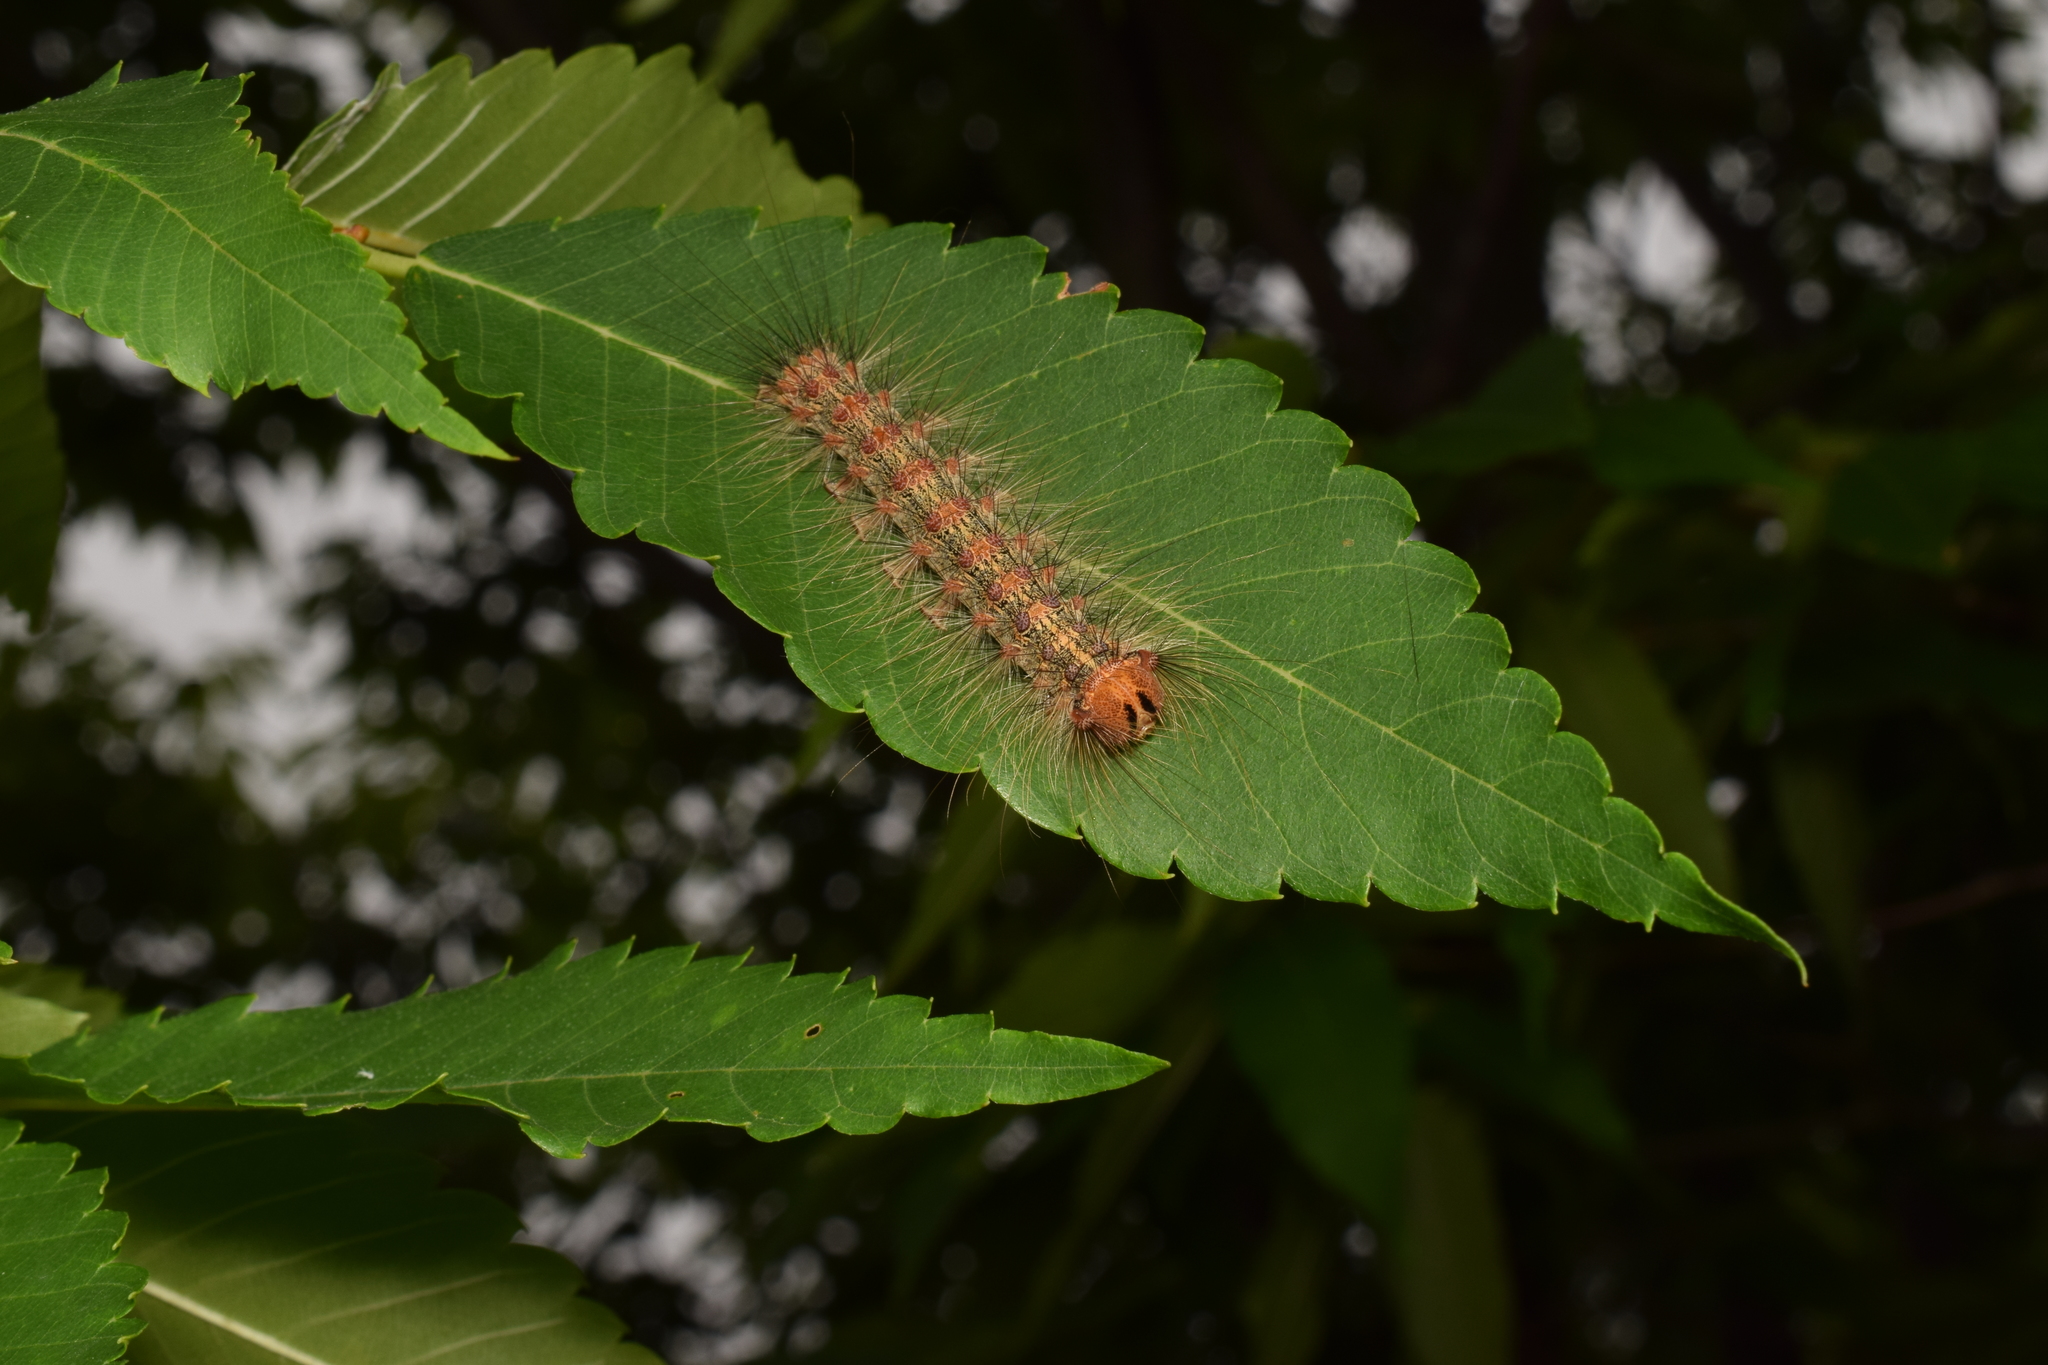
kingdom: Animalia
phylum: Arthropoda
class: Insecta
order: Lepidoptera
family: Erebidae
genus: Lymantria
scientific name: Lymantria dispar
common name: Gypsy moth
